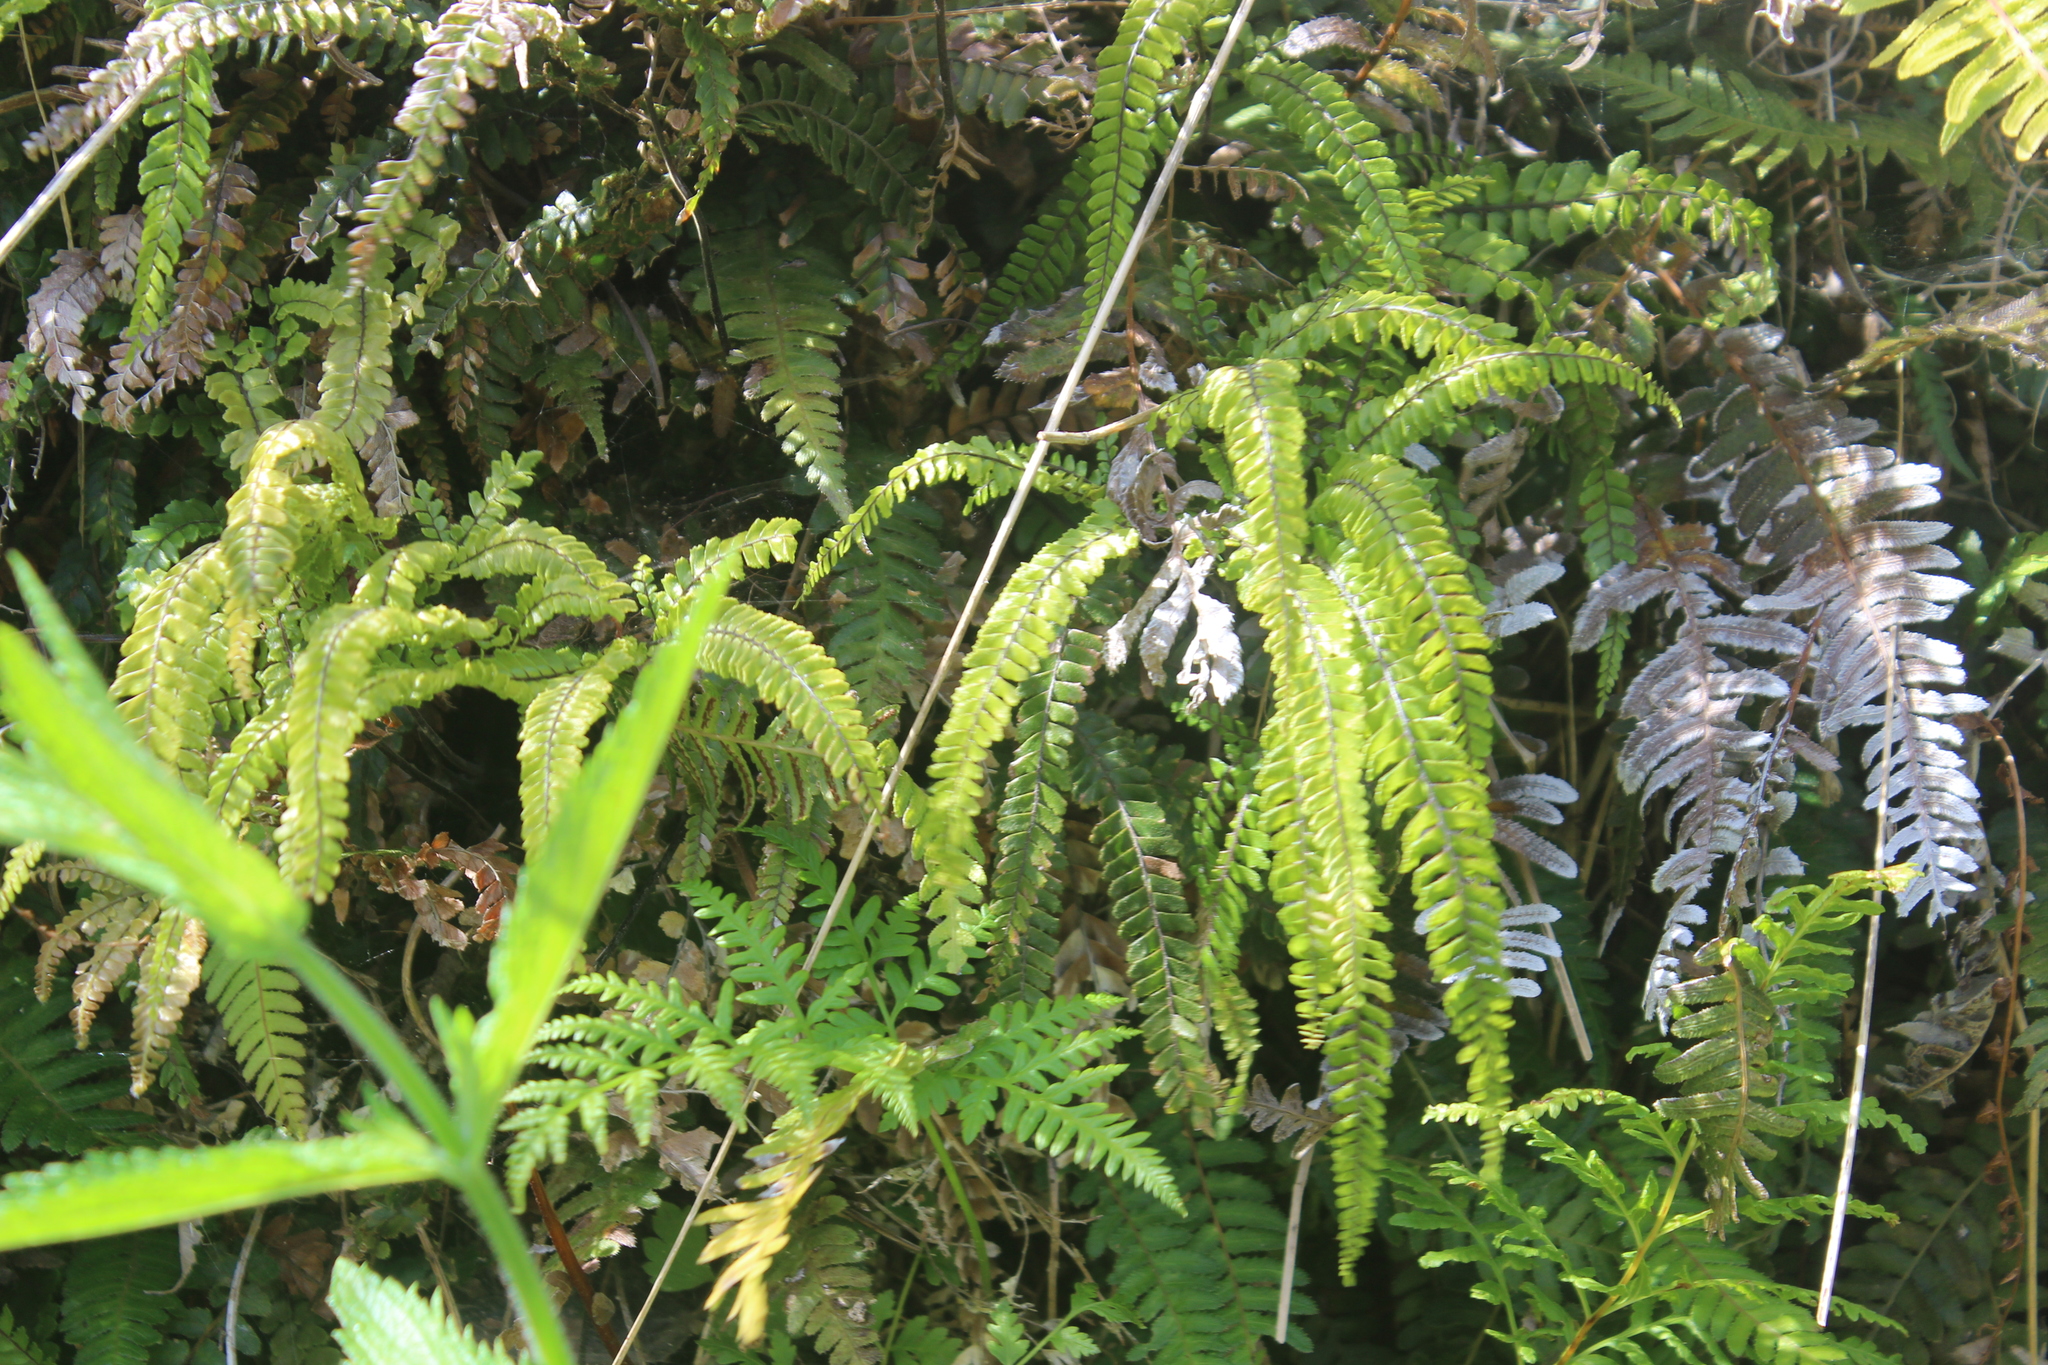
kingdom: Plantae
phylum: Tracheophyta
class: Polypodiopsida
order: Polypodiales
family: Pteridaceae
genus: Adiantum
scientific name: Adiantum hispidulum
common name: Rough maidenhair
